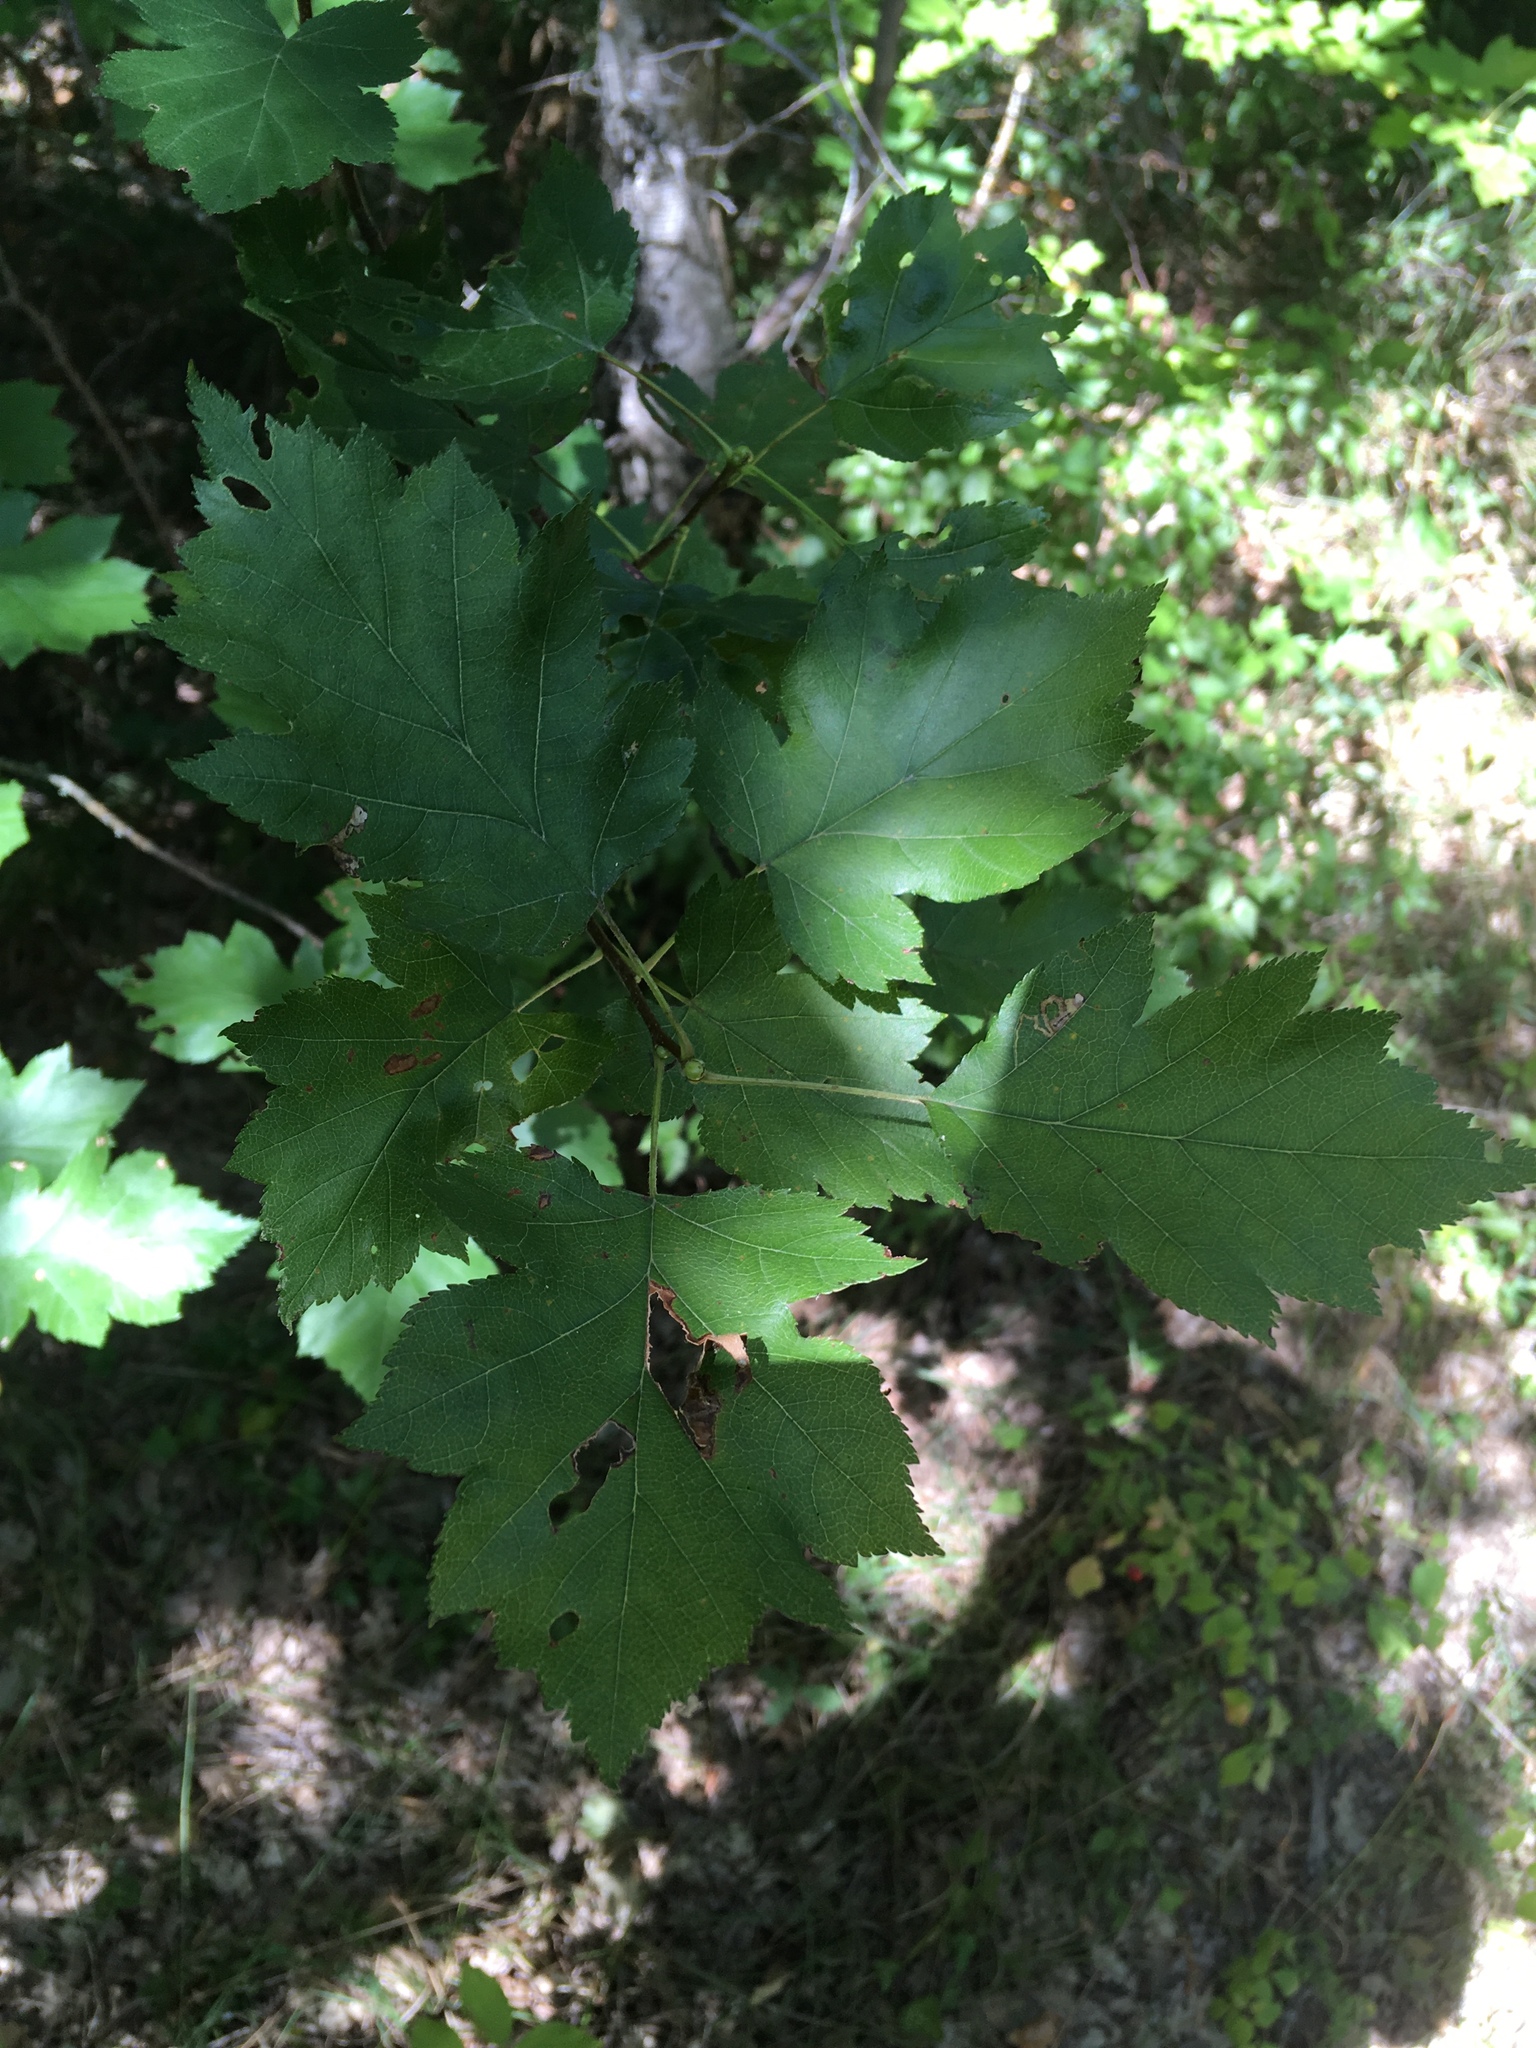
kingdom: Plantae
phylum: Tracheophyta
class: Magnoliopsida
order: Rosales
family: Rosaceae
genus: Torminalis
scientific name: Torminalis glaberrima
